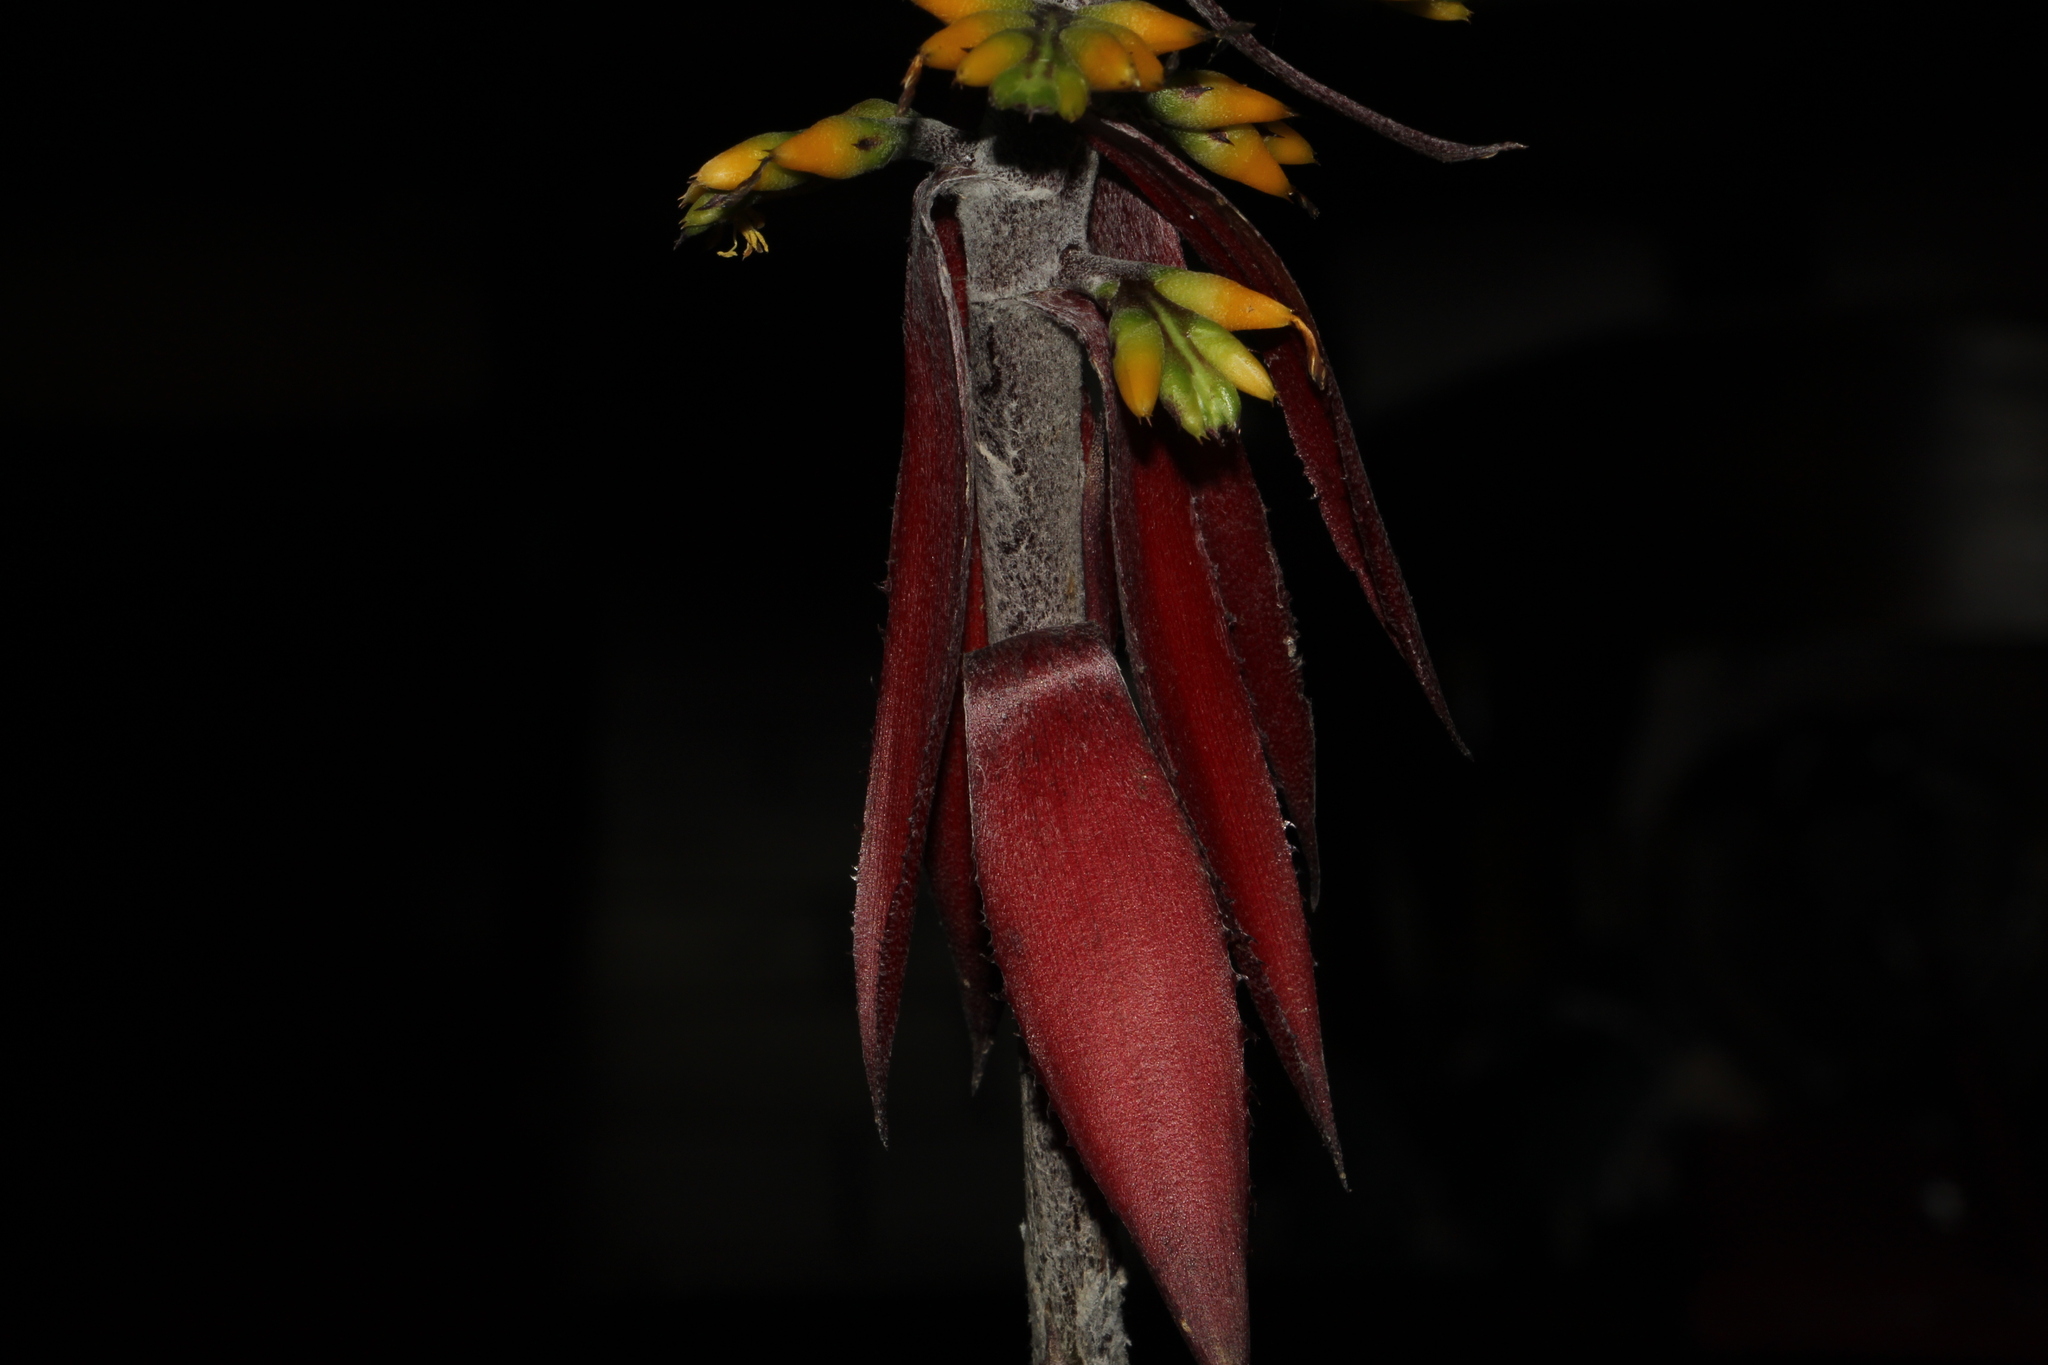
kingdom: Plantae
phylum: Tracheophyta
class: Liliopsida
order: Poales
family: Bromeliaceae
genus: Aechmea
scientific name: Aechmea angustifolia
